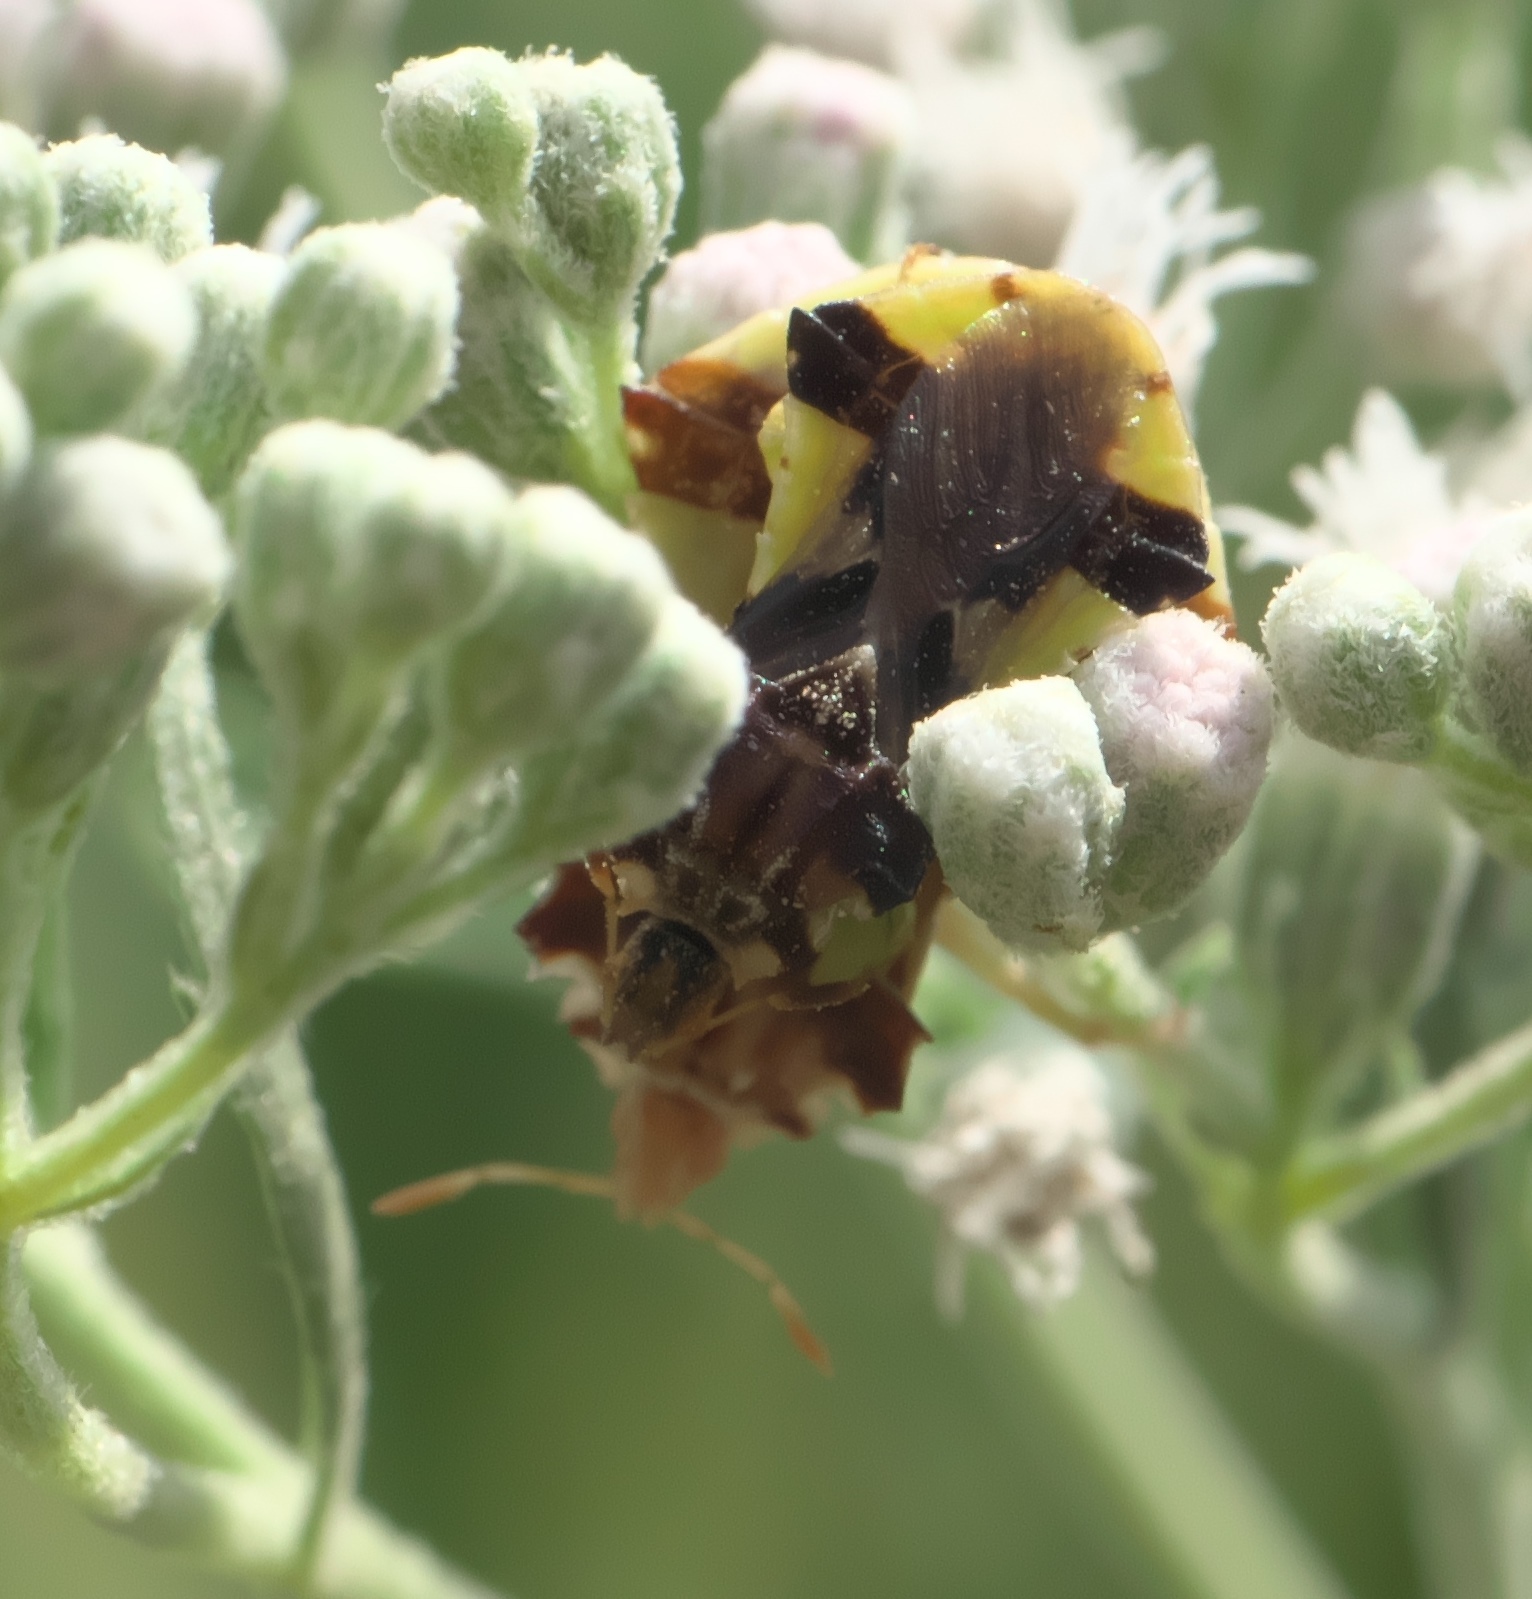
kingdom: Animalia
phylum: Arthropoda
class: Insecta
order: Hemiptera
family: Reduviidae
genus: Phymata
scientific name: Phymata americana
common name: Jagged ambush bug
